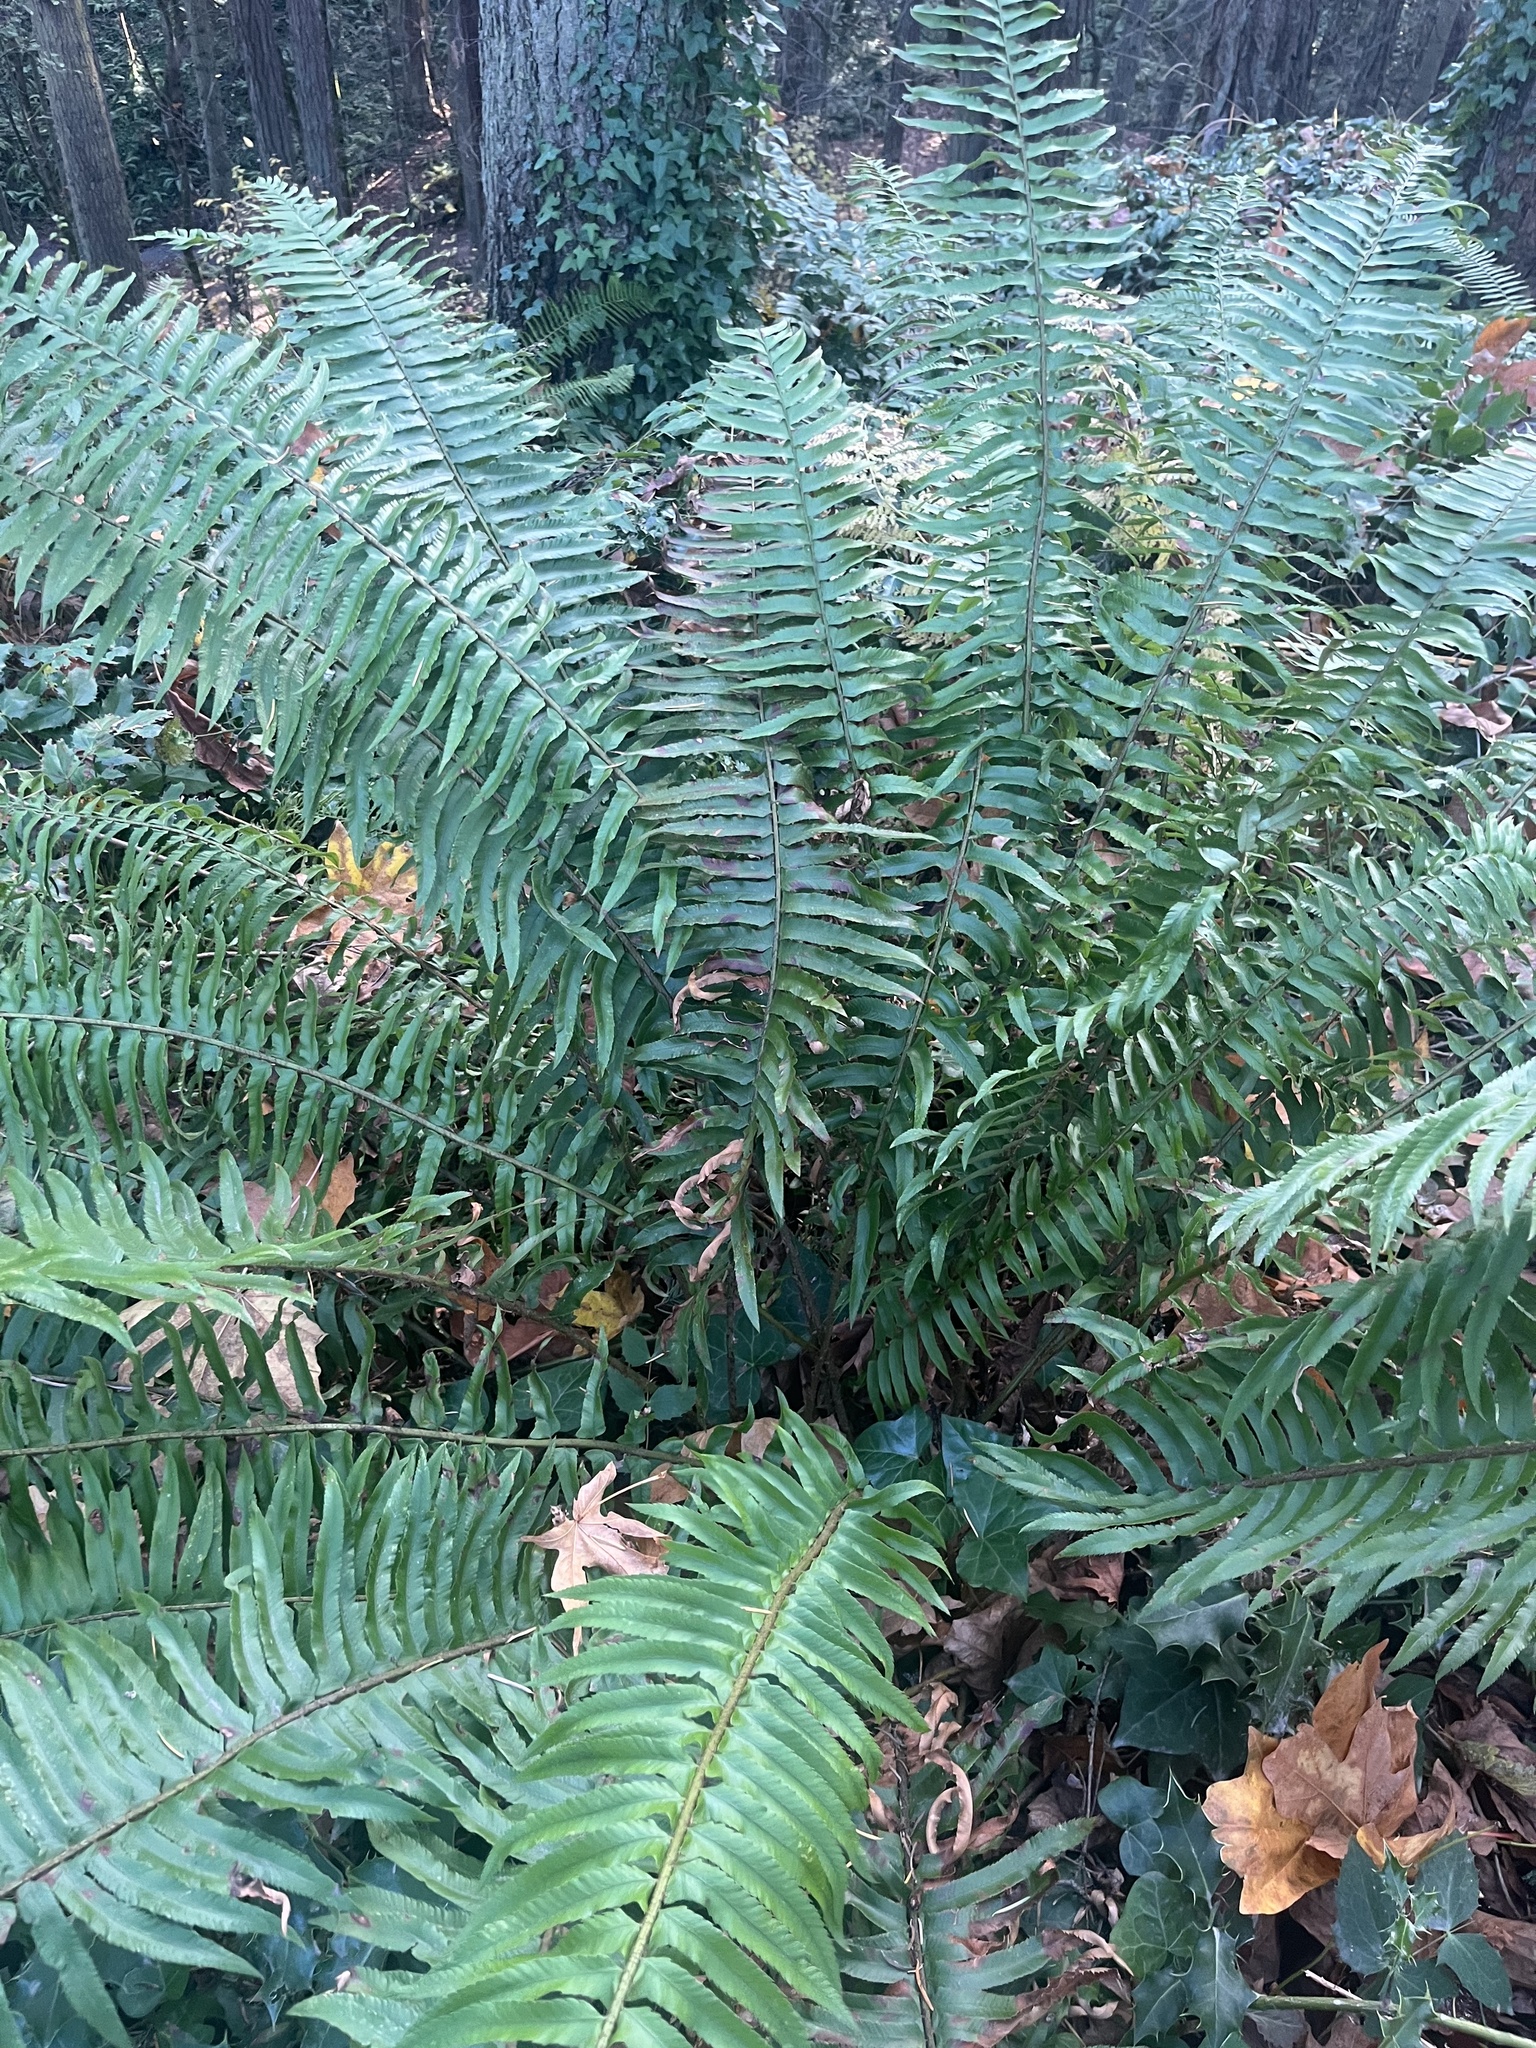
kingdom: Plantae
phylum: Tracheophyta
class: Polypodiopsida
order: Polypodiales
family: Dryopteridaceae
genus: Polystichum
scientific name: Polystichum munitum
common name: Western sword-fern
